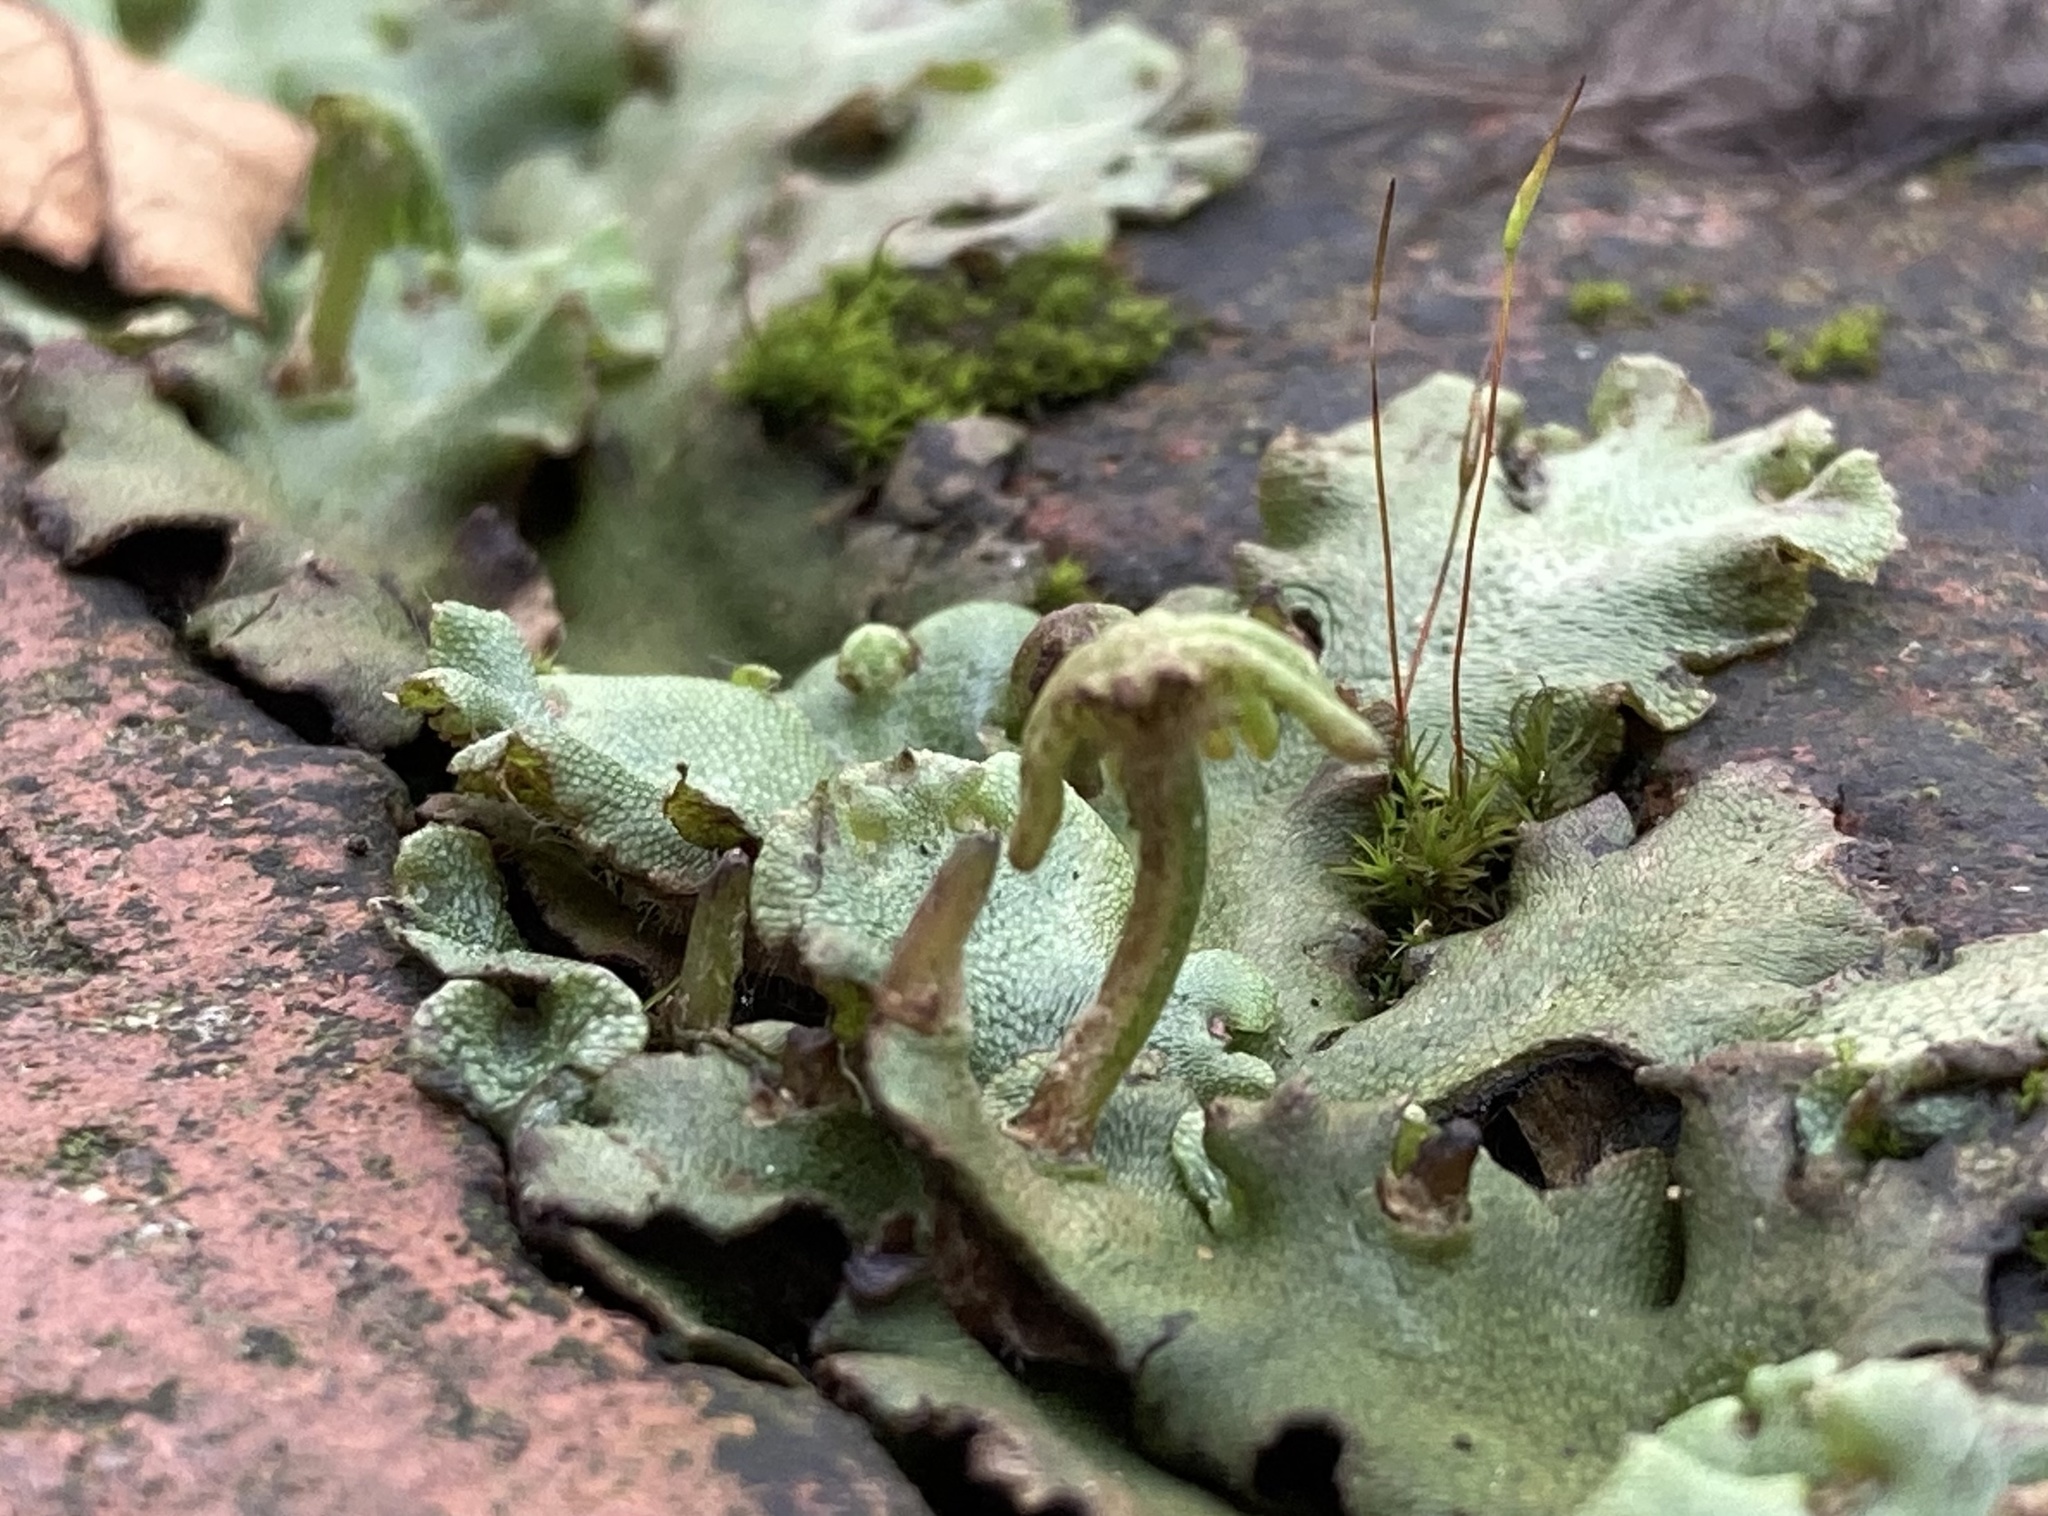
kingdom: Plantae
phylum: Marchantiophyta
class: Marchantiopsida
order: Marchantiales
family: Marchantiaceae
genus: Marchantia
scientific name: Marchantia berteroana
